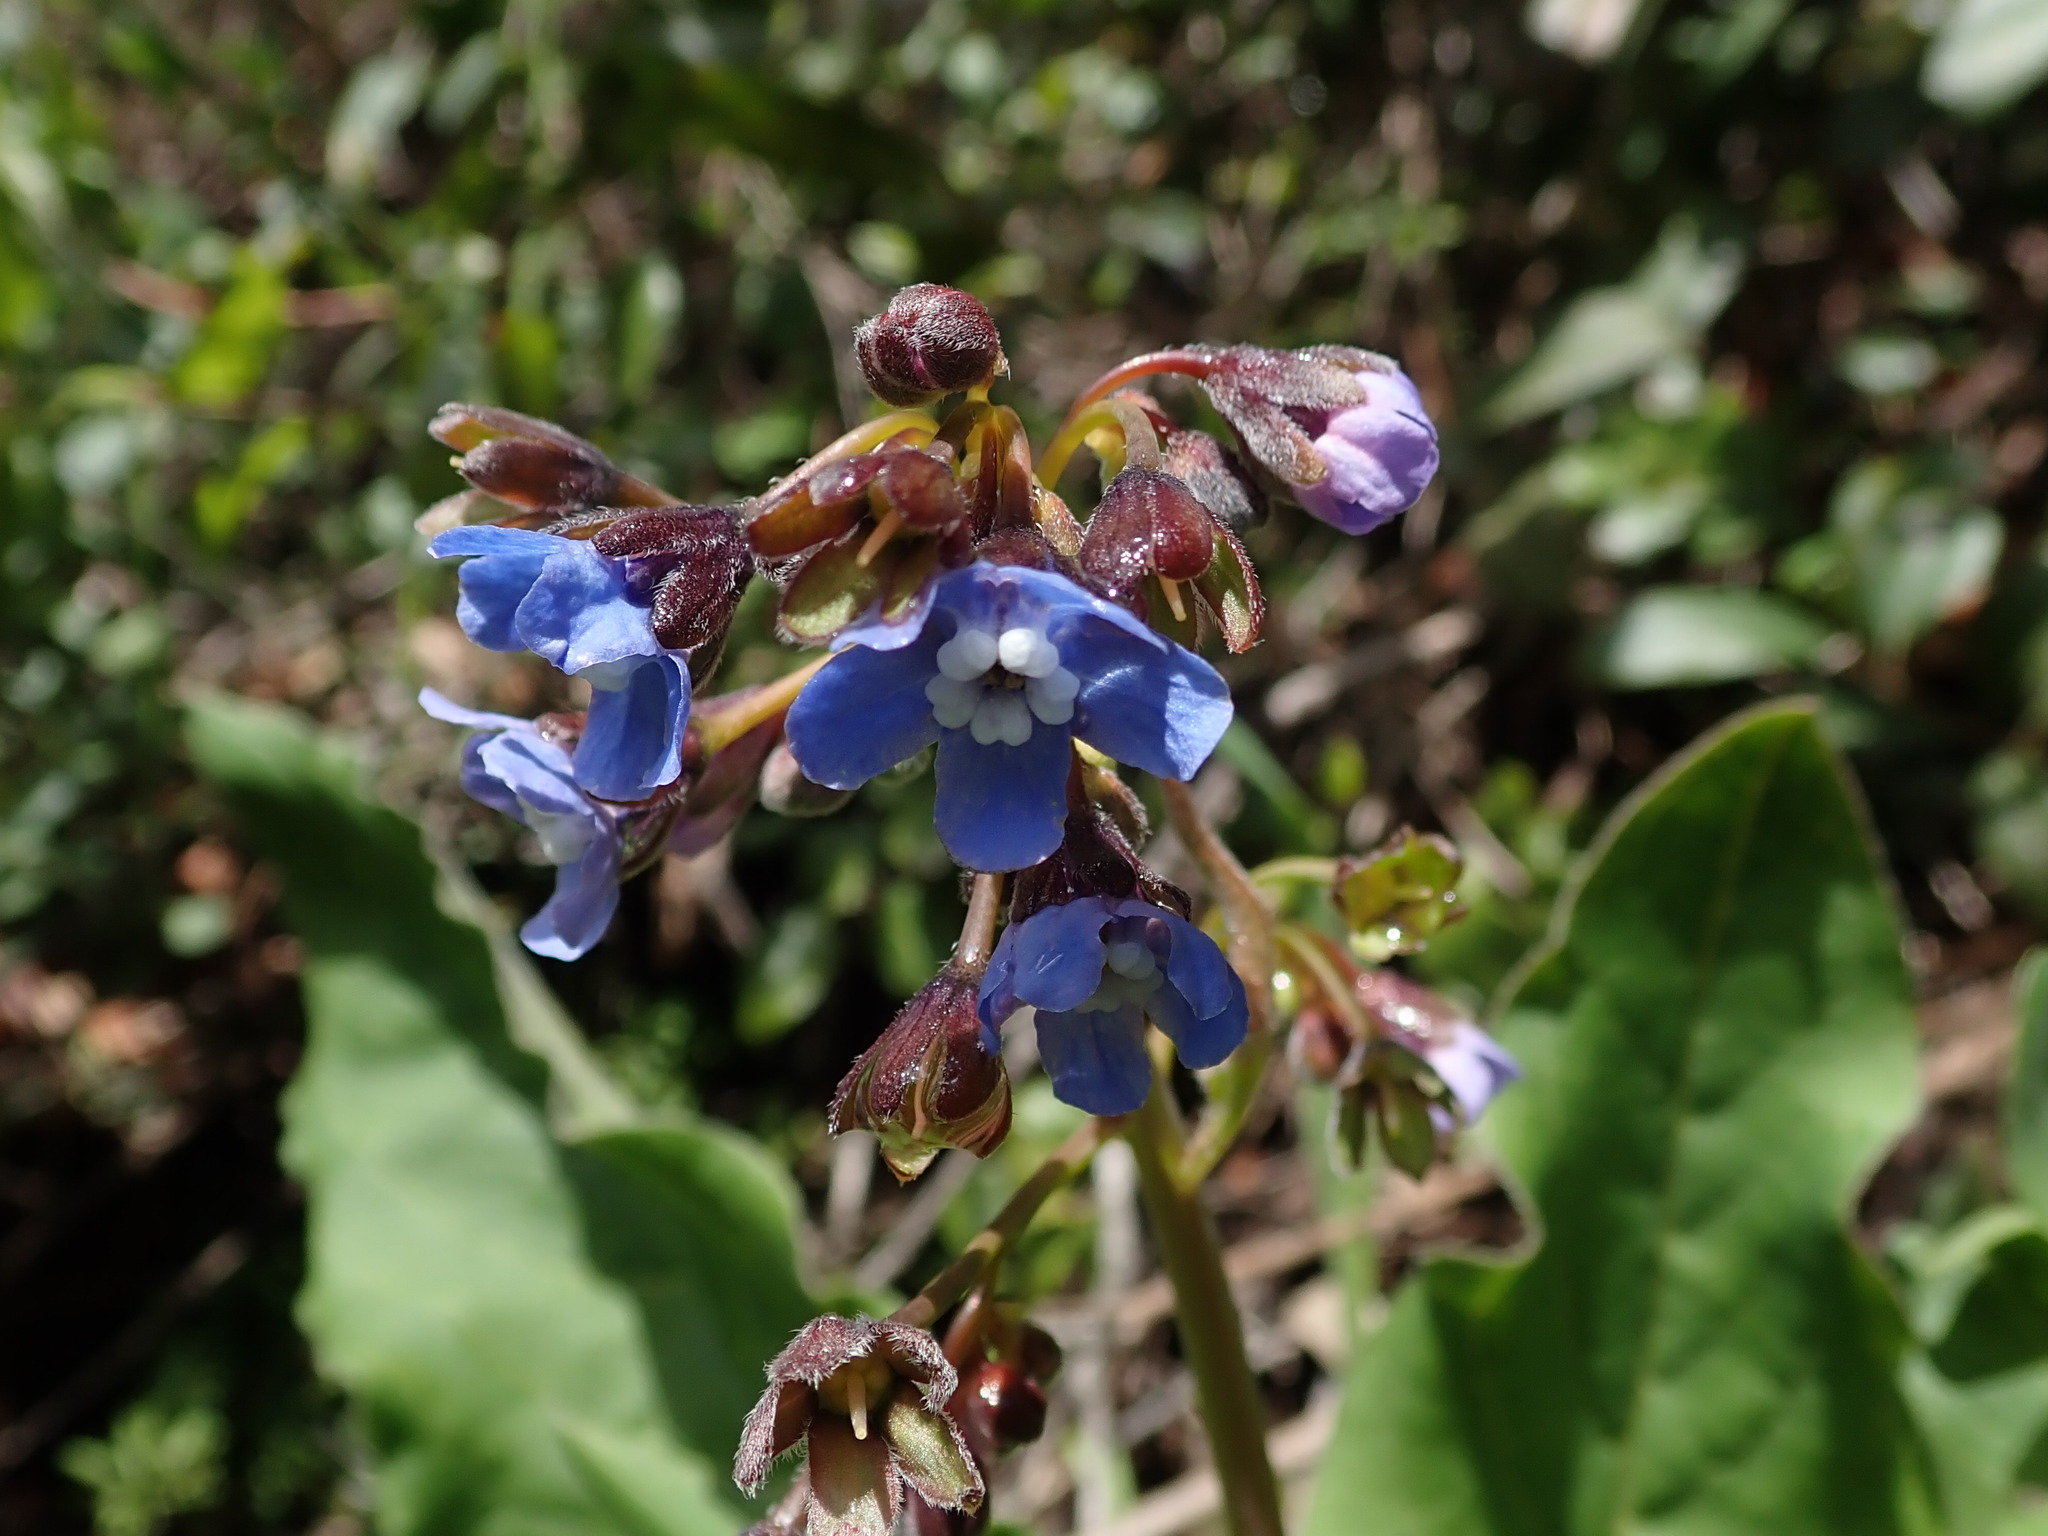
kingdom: Plantae
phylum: Tracheophyta
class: Magnoliopsida
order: Boraginales
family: Boraginaceae
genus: Adelinia
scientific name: Adelinia grande
